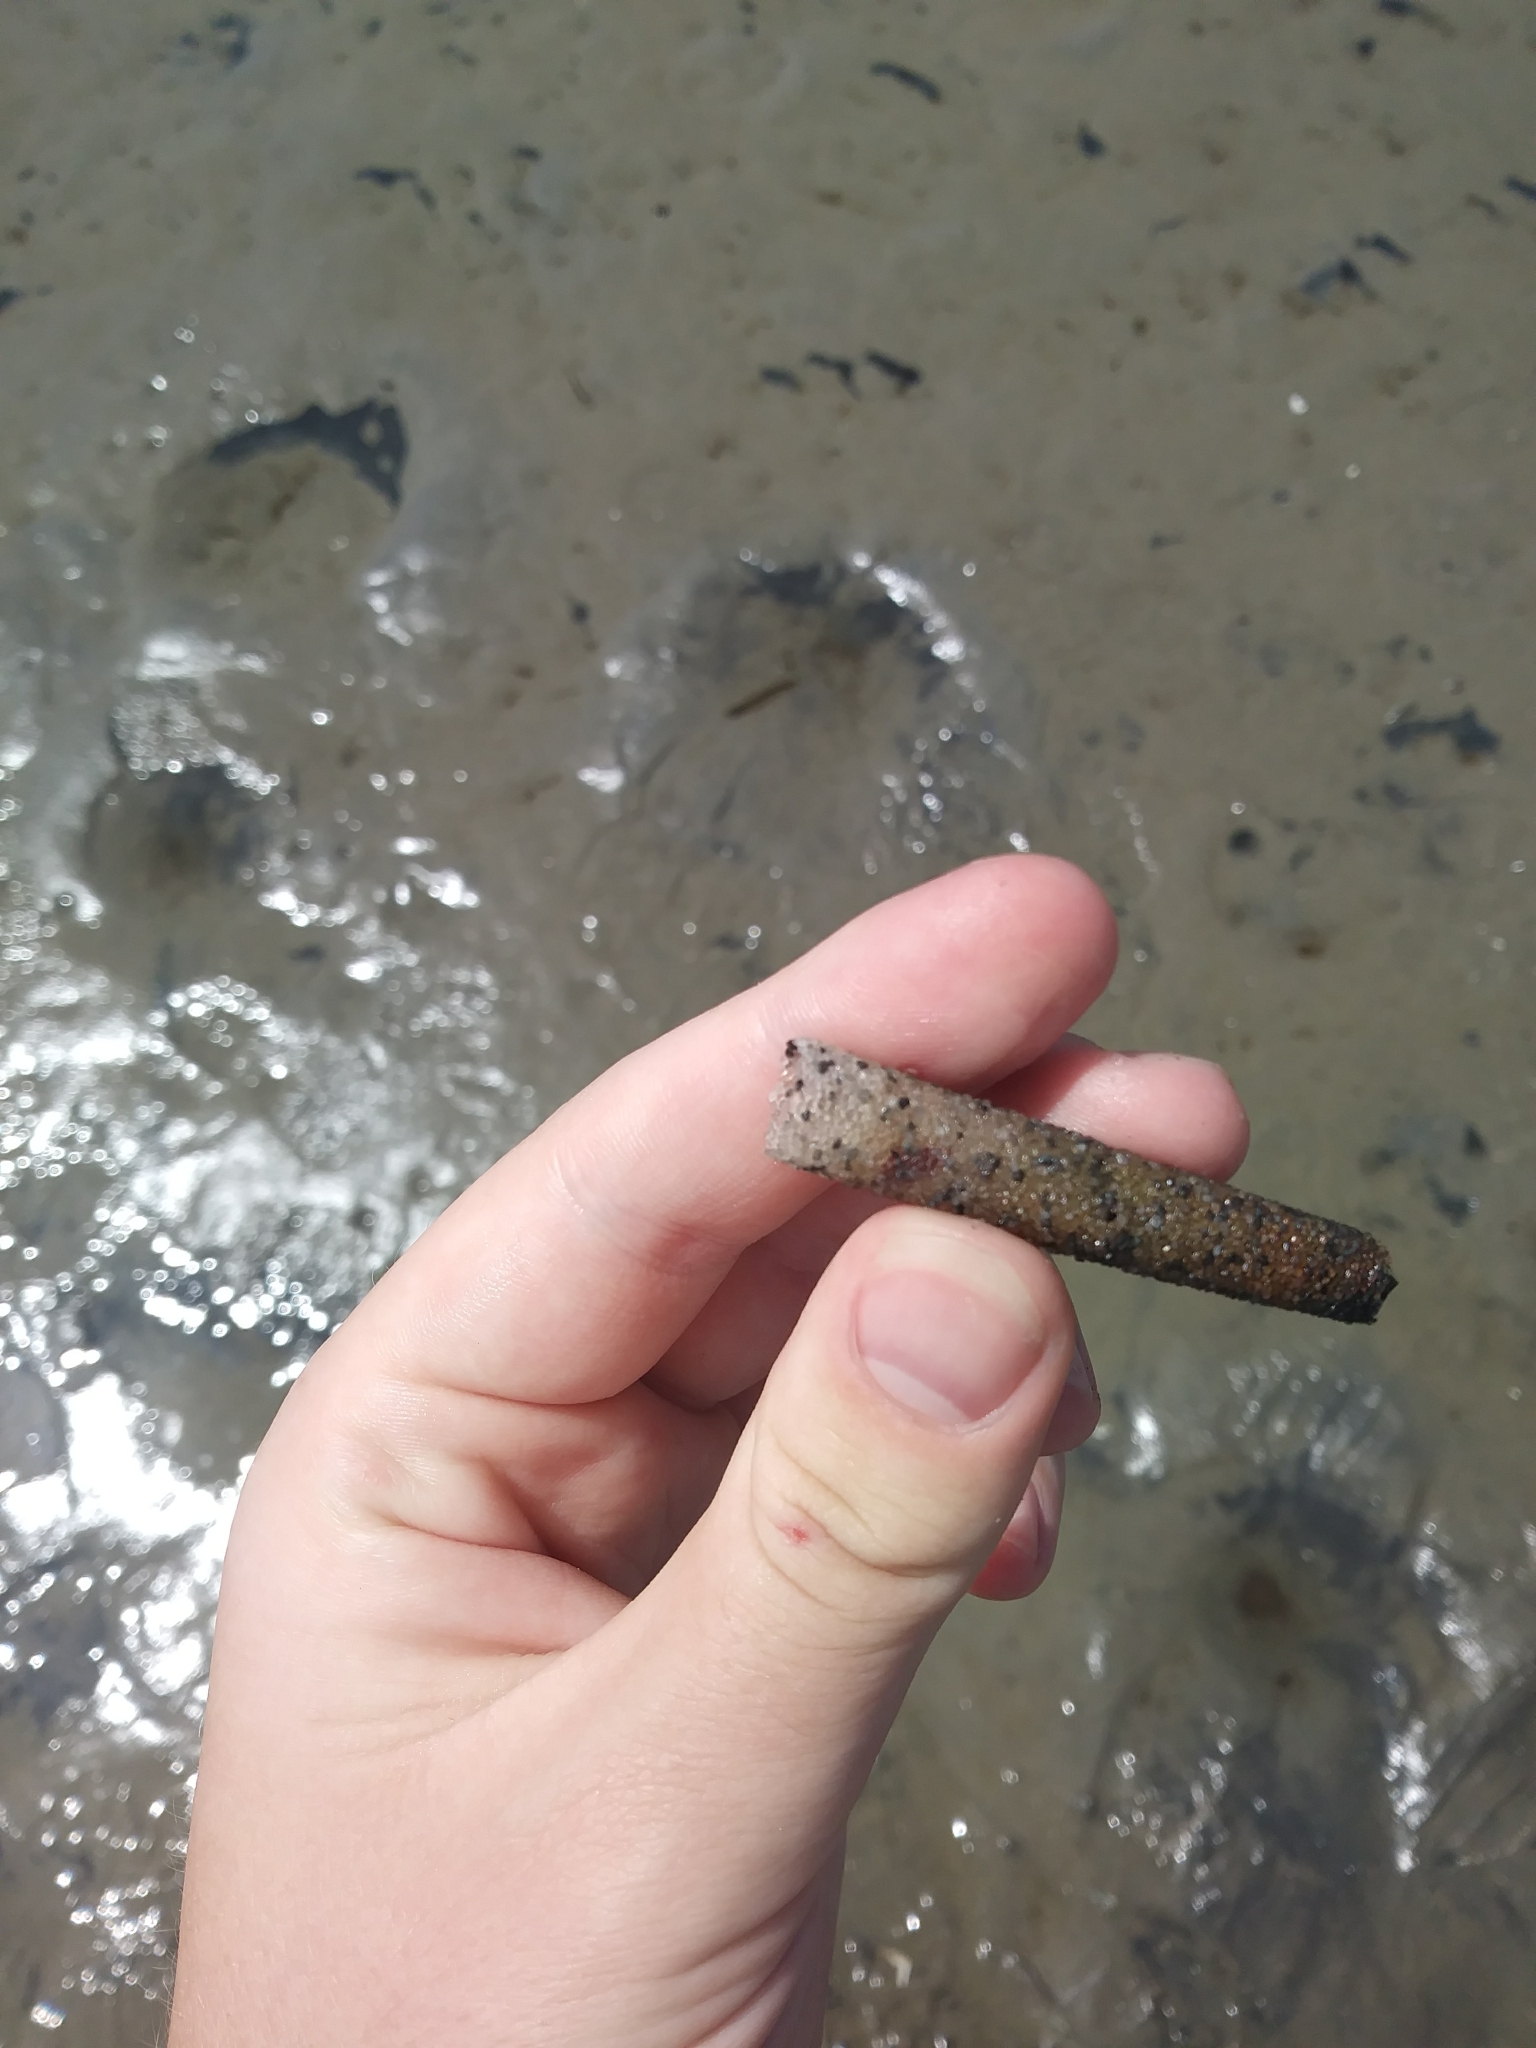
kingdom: Animalia
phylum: Annelida
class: Polychaeta
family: Pectinariidae
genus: Pectinaria
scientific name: Pectinaria gouldii
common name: Ice cream cone worm
